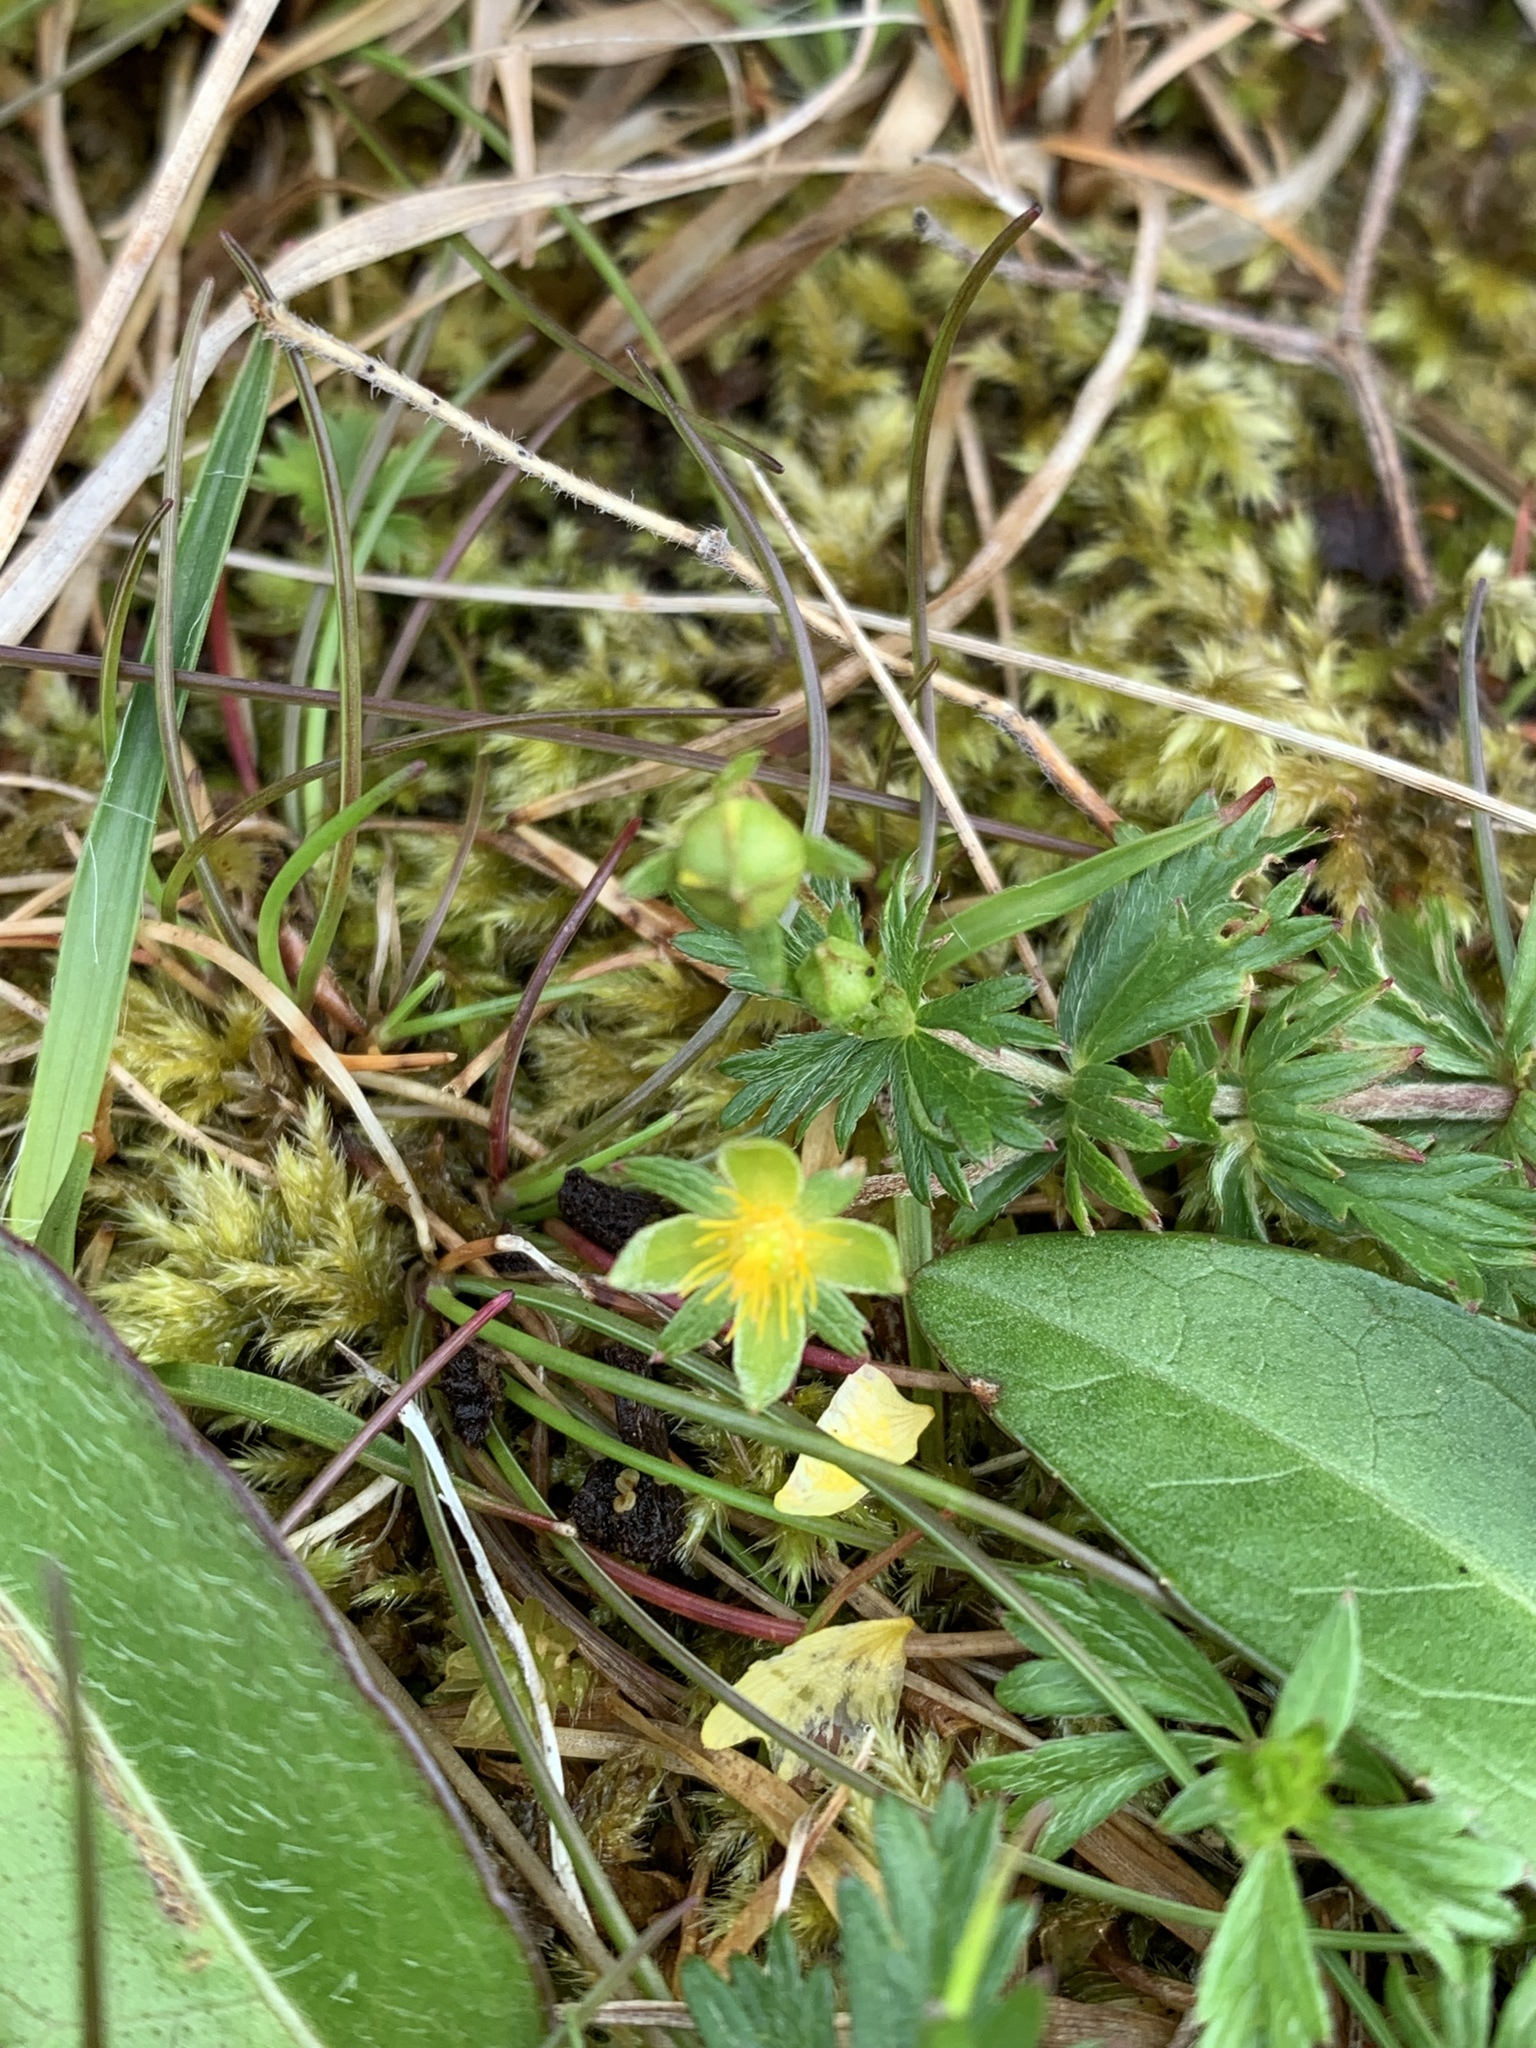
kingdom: Plantae
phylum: Tracheophyta
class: Magnoliopsida
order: Rosales
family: Rosaceae
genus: Potentilla
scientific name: Potentilla erecta
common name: Tormentil
